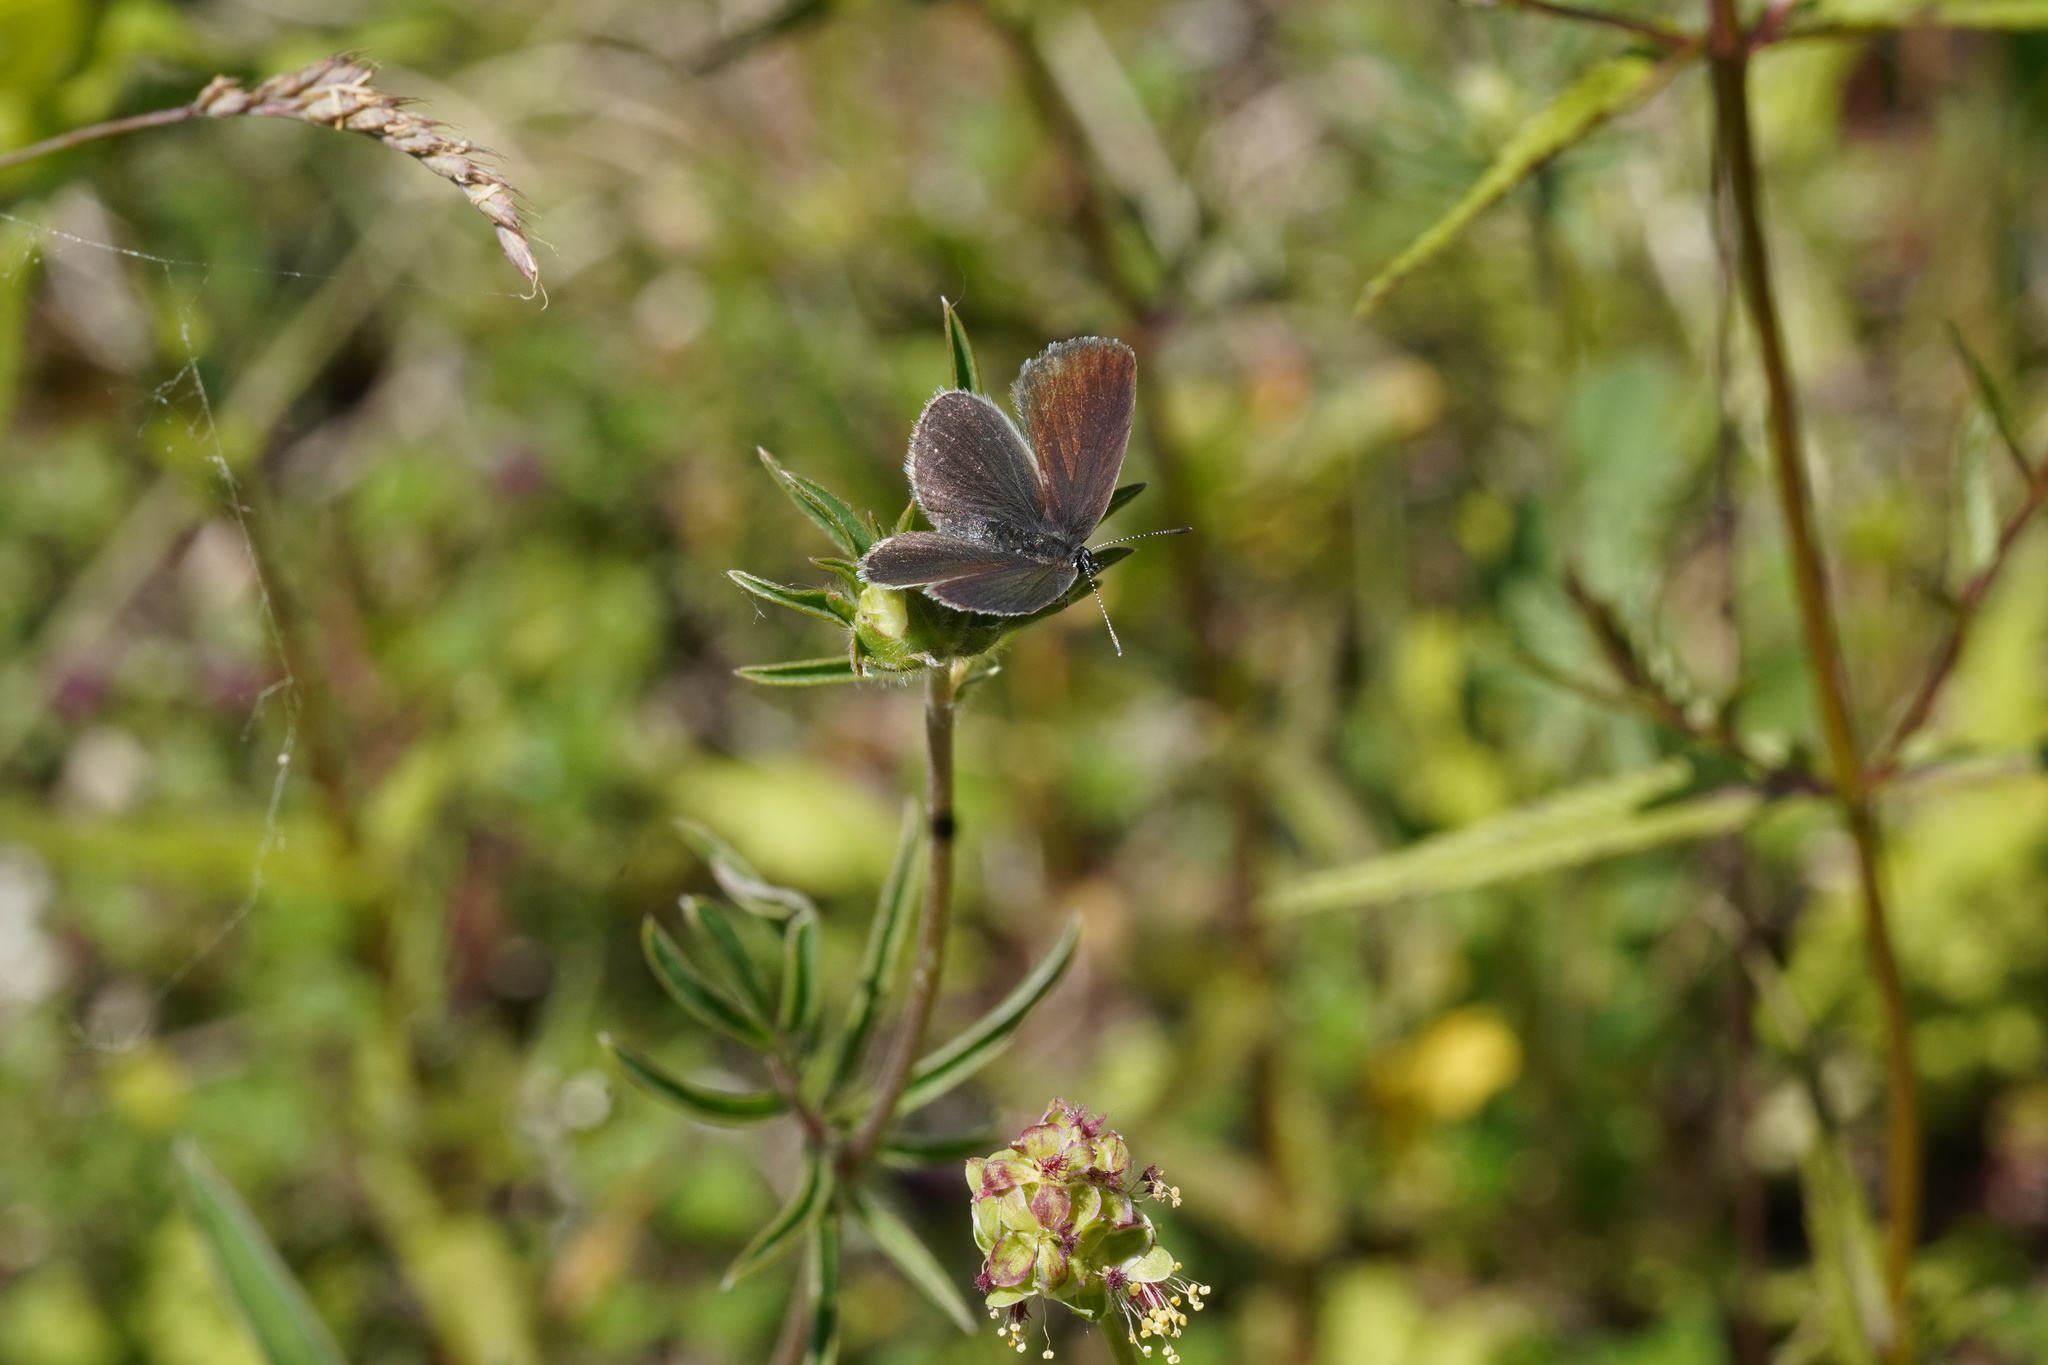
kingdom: Animalia
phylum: Arthropoda
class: Insecta
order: Lepidoptera
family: Lycaenidae
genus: Cupido
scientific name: Cupido minimus
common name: Small blue
